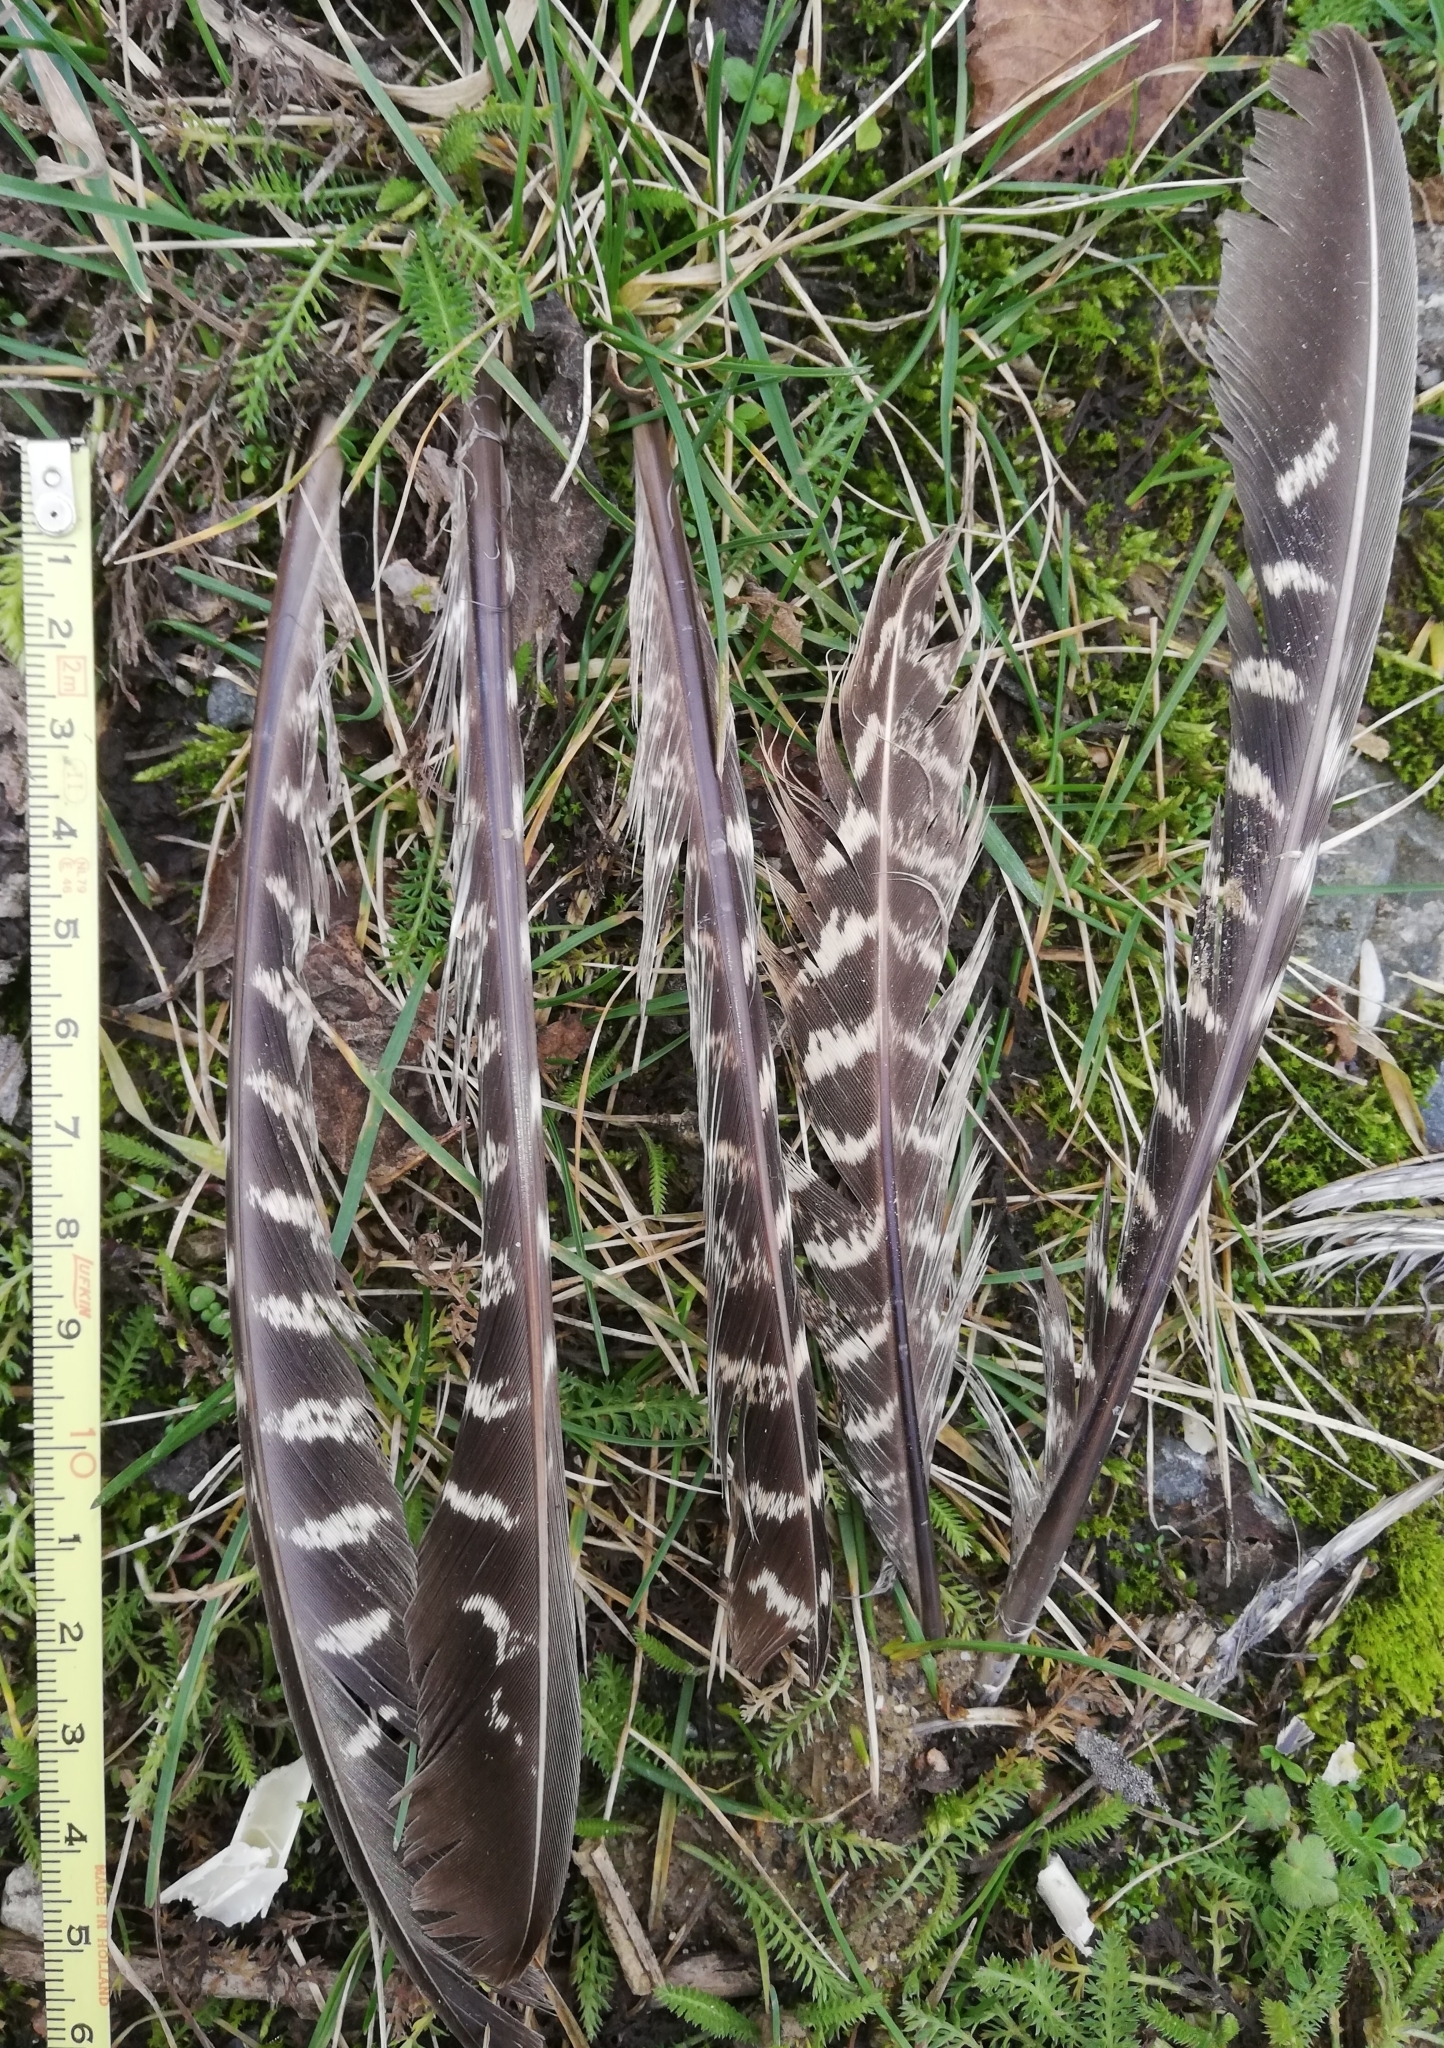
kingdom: Animalia
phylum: Chordata
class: Aves
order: Galliformes
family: Phasianidae
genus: Phasianus
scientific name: Phasianus colchicus
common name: Common pheasant
